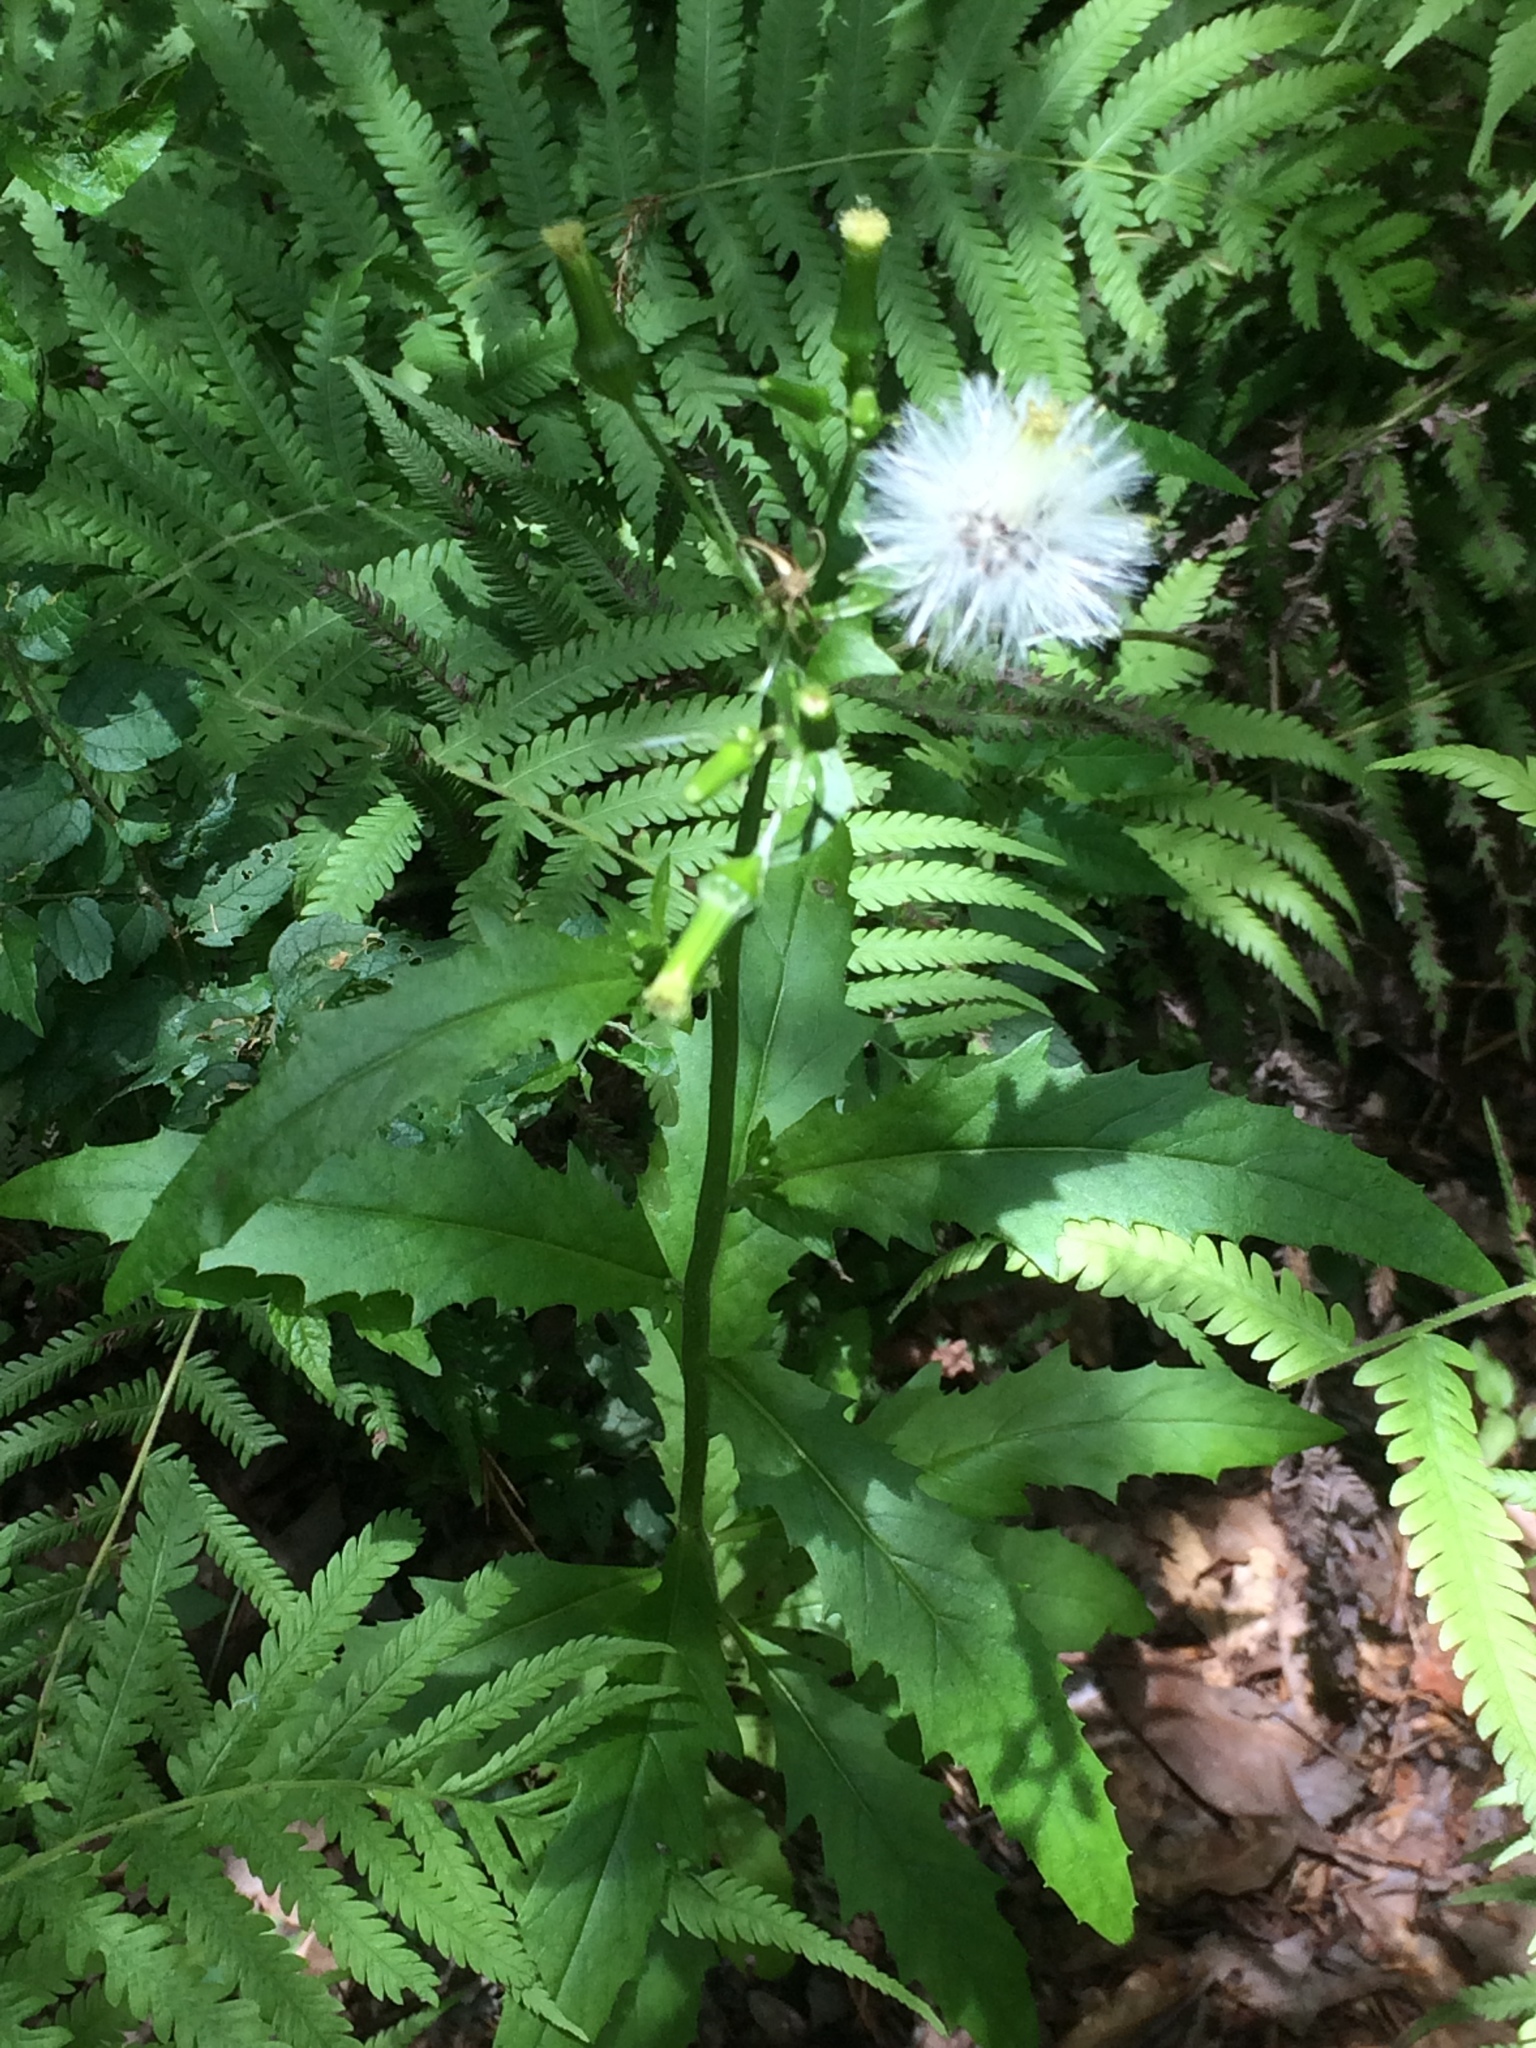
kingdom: Plantae
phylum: Tracheophyta
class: Magnoliopsida
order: Asterales
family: Asteraceae
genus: Erechtites
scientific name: Erechtites hieraciifolius
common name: American burnweed
